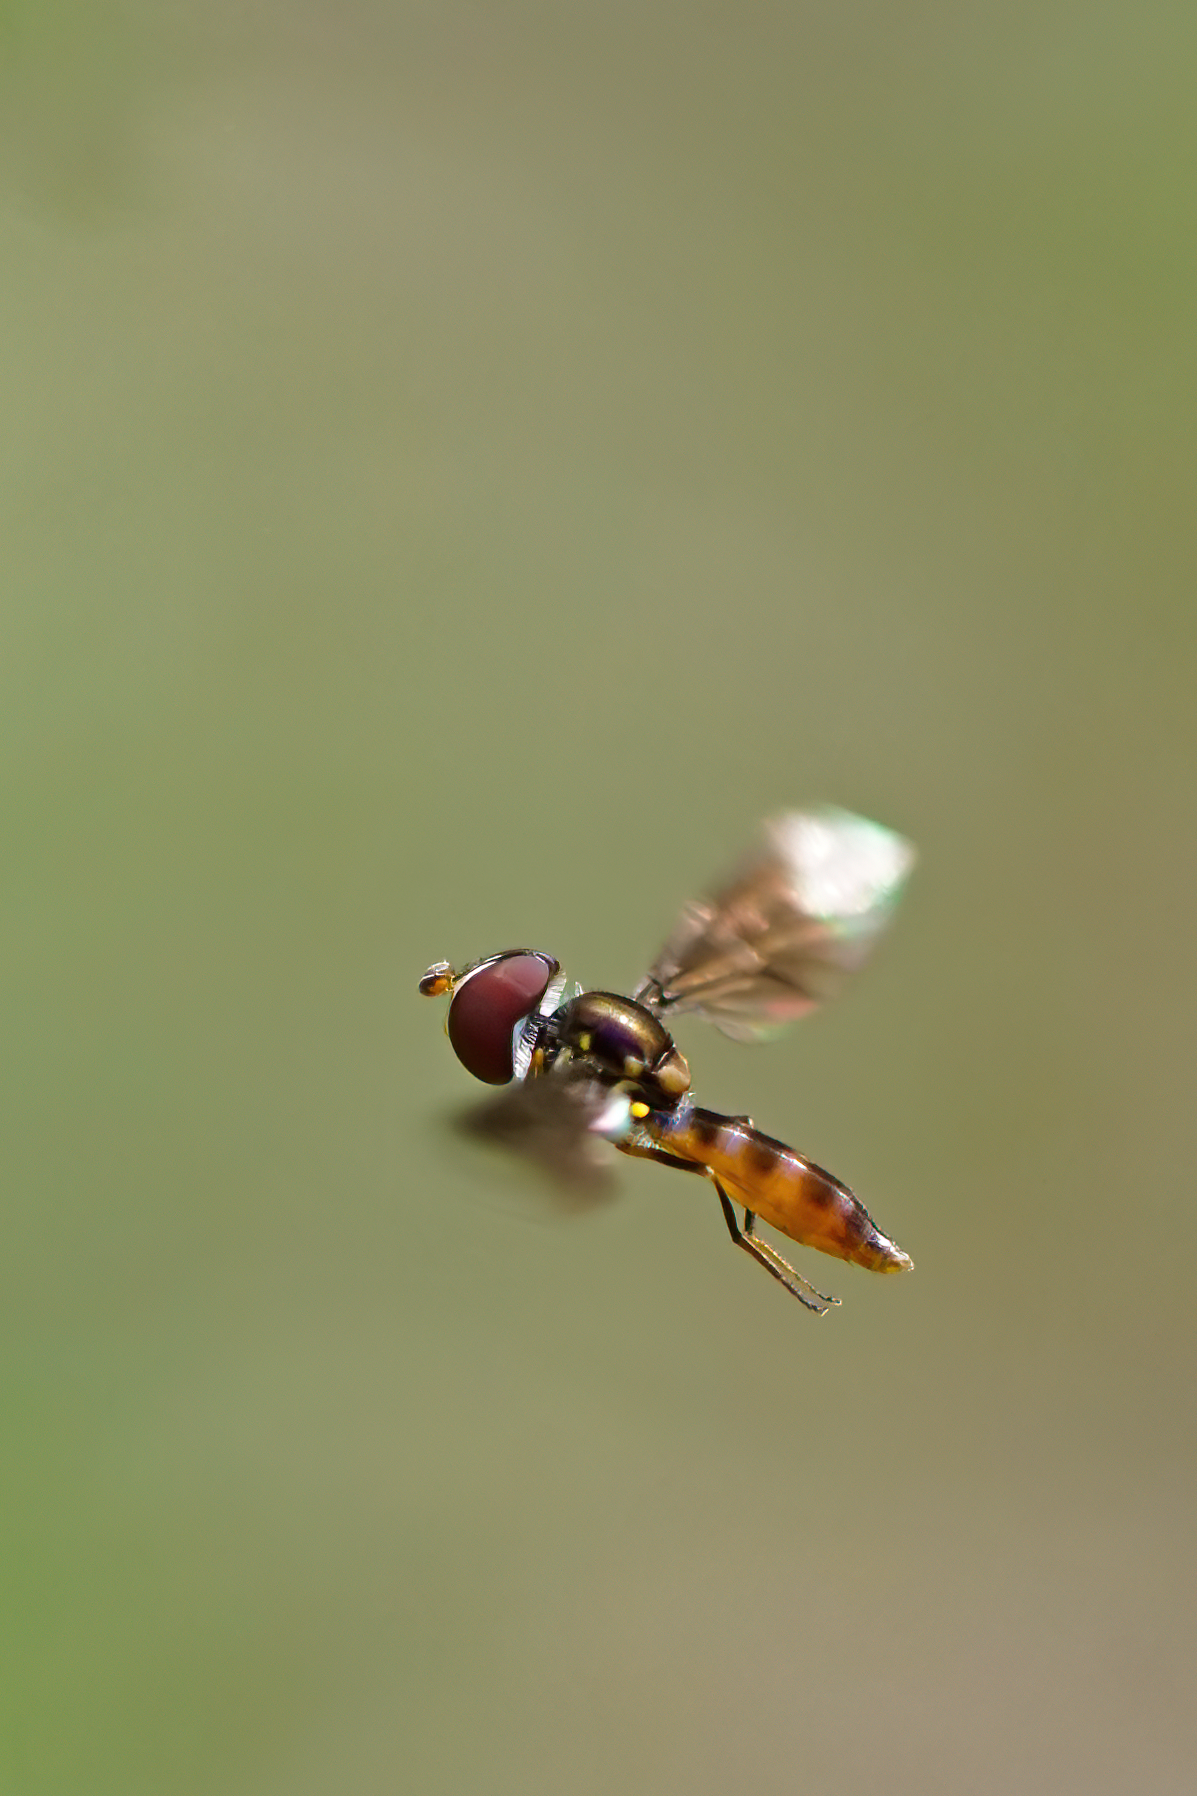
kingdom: Animalia
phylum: Arthropoda
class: Insecta
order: Diptera
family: Syrphidae
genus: Ocyptamus
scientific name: Ocyptamus antiphates
